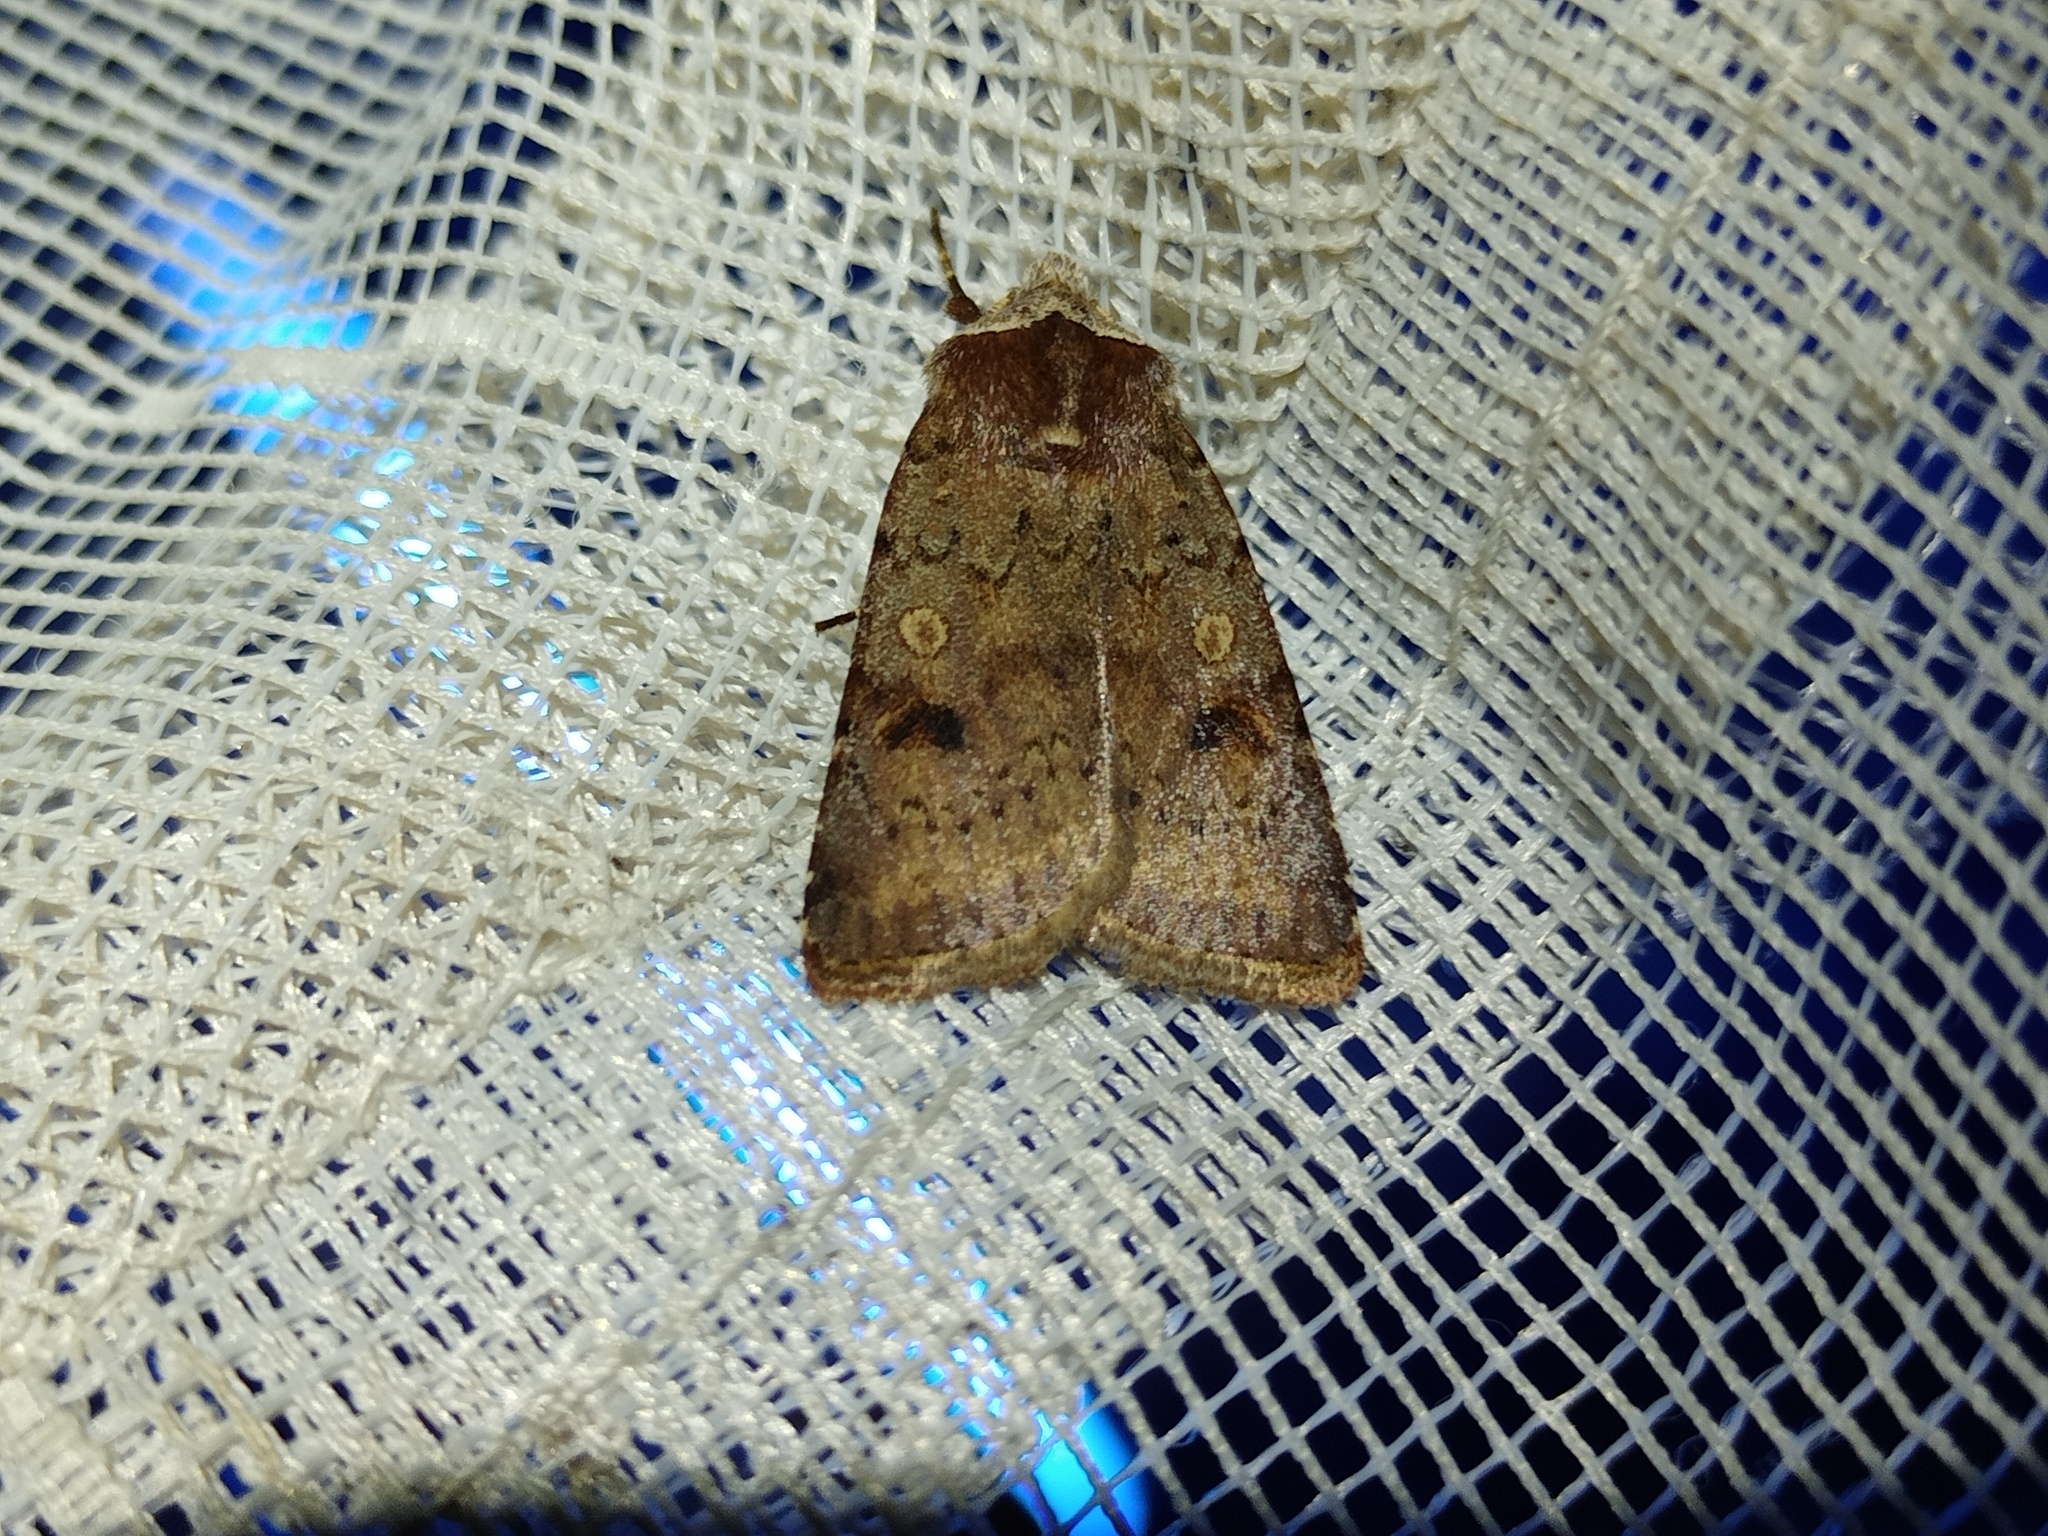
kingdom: Animalia
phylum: Arthropoda
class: Insecta
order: Lepidoptera
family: Noctuidae
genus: Cerastis
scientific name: Cerastis faceta
